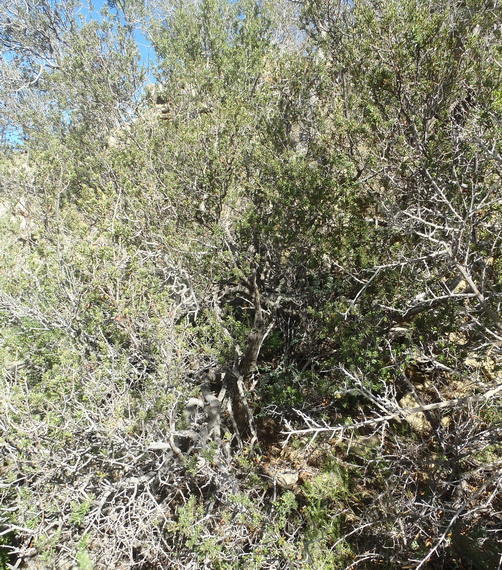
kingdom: Plantae
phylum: Tracheophyta
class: Magnoliopsida
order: Ericales
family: Ebenaceae
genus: Diospyros
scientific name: Diospyros lycioides
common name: Red star apple
